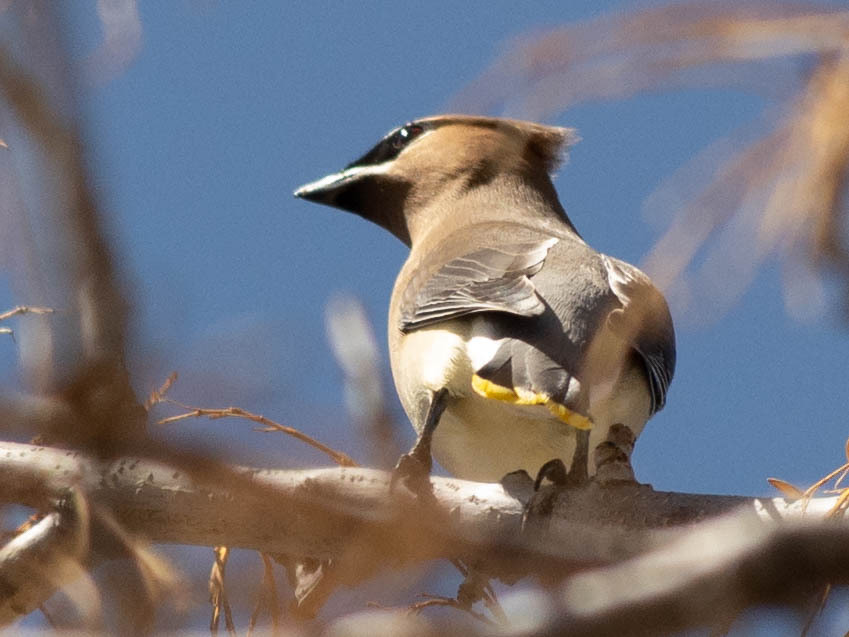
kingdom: Animalia
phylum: Chordata
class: Aves
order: Passeriformes
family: Bombycillidae
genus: Bombycilla
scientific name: Bombycilla cedrorum
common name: Cedar waxwing
